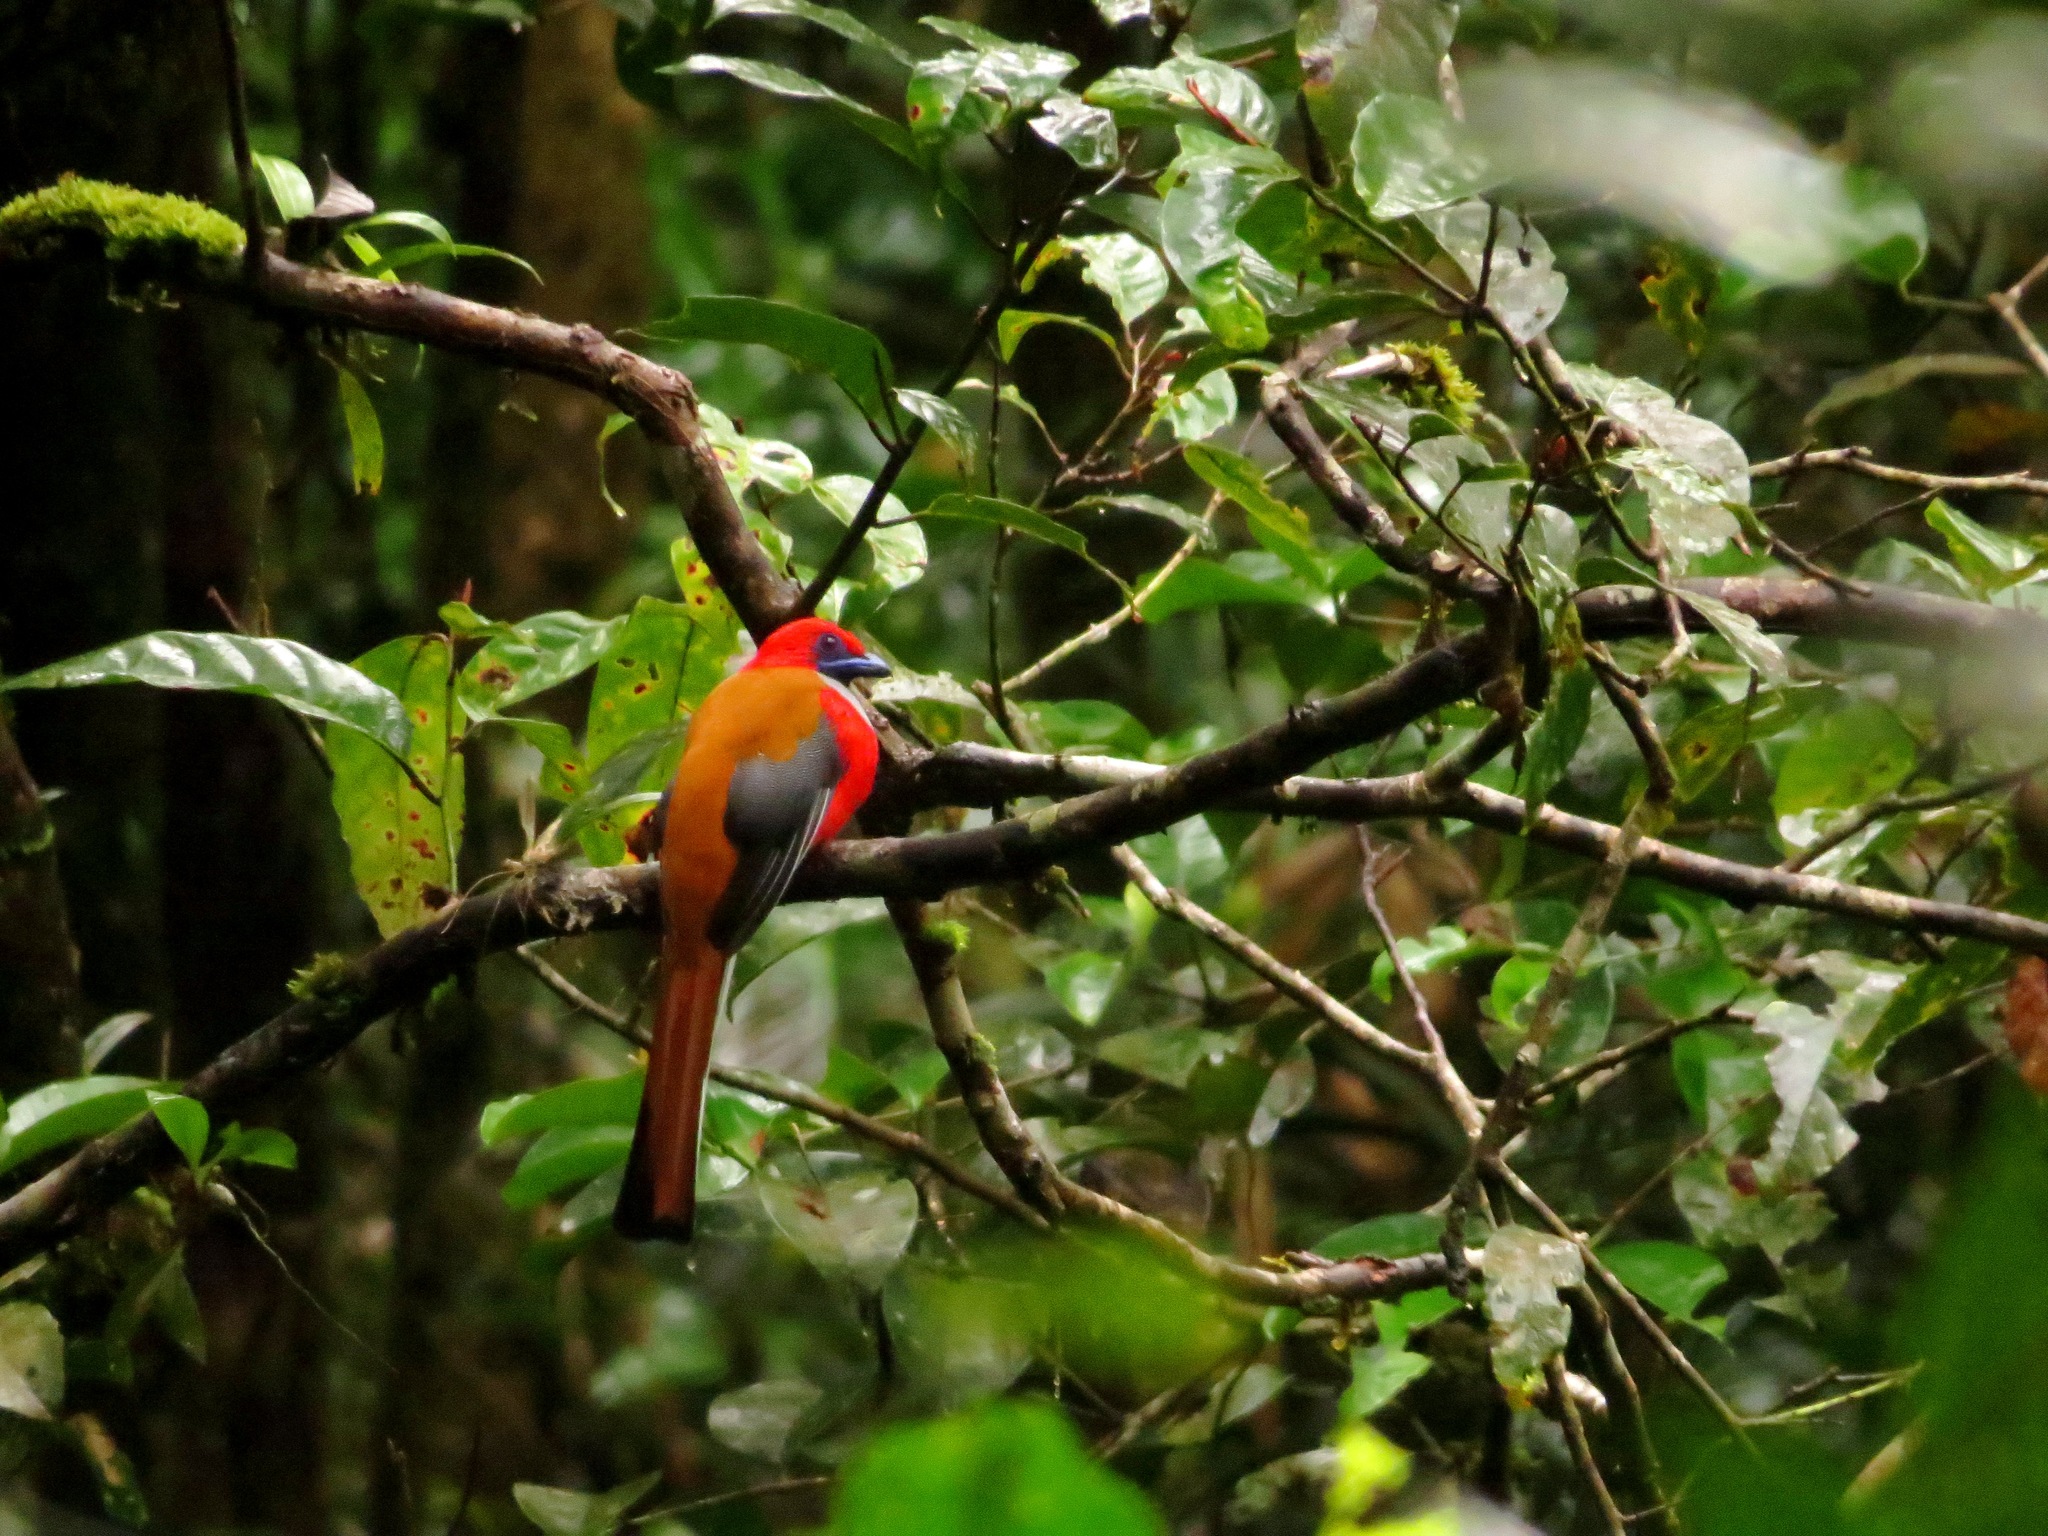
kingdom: Animalia
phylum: Chordata
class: Aves
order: Trogoniformes
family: Trogonidae
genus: Harpactes
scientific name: Harpactes whiteheadi
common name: Whitehead's trogon
